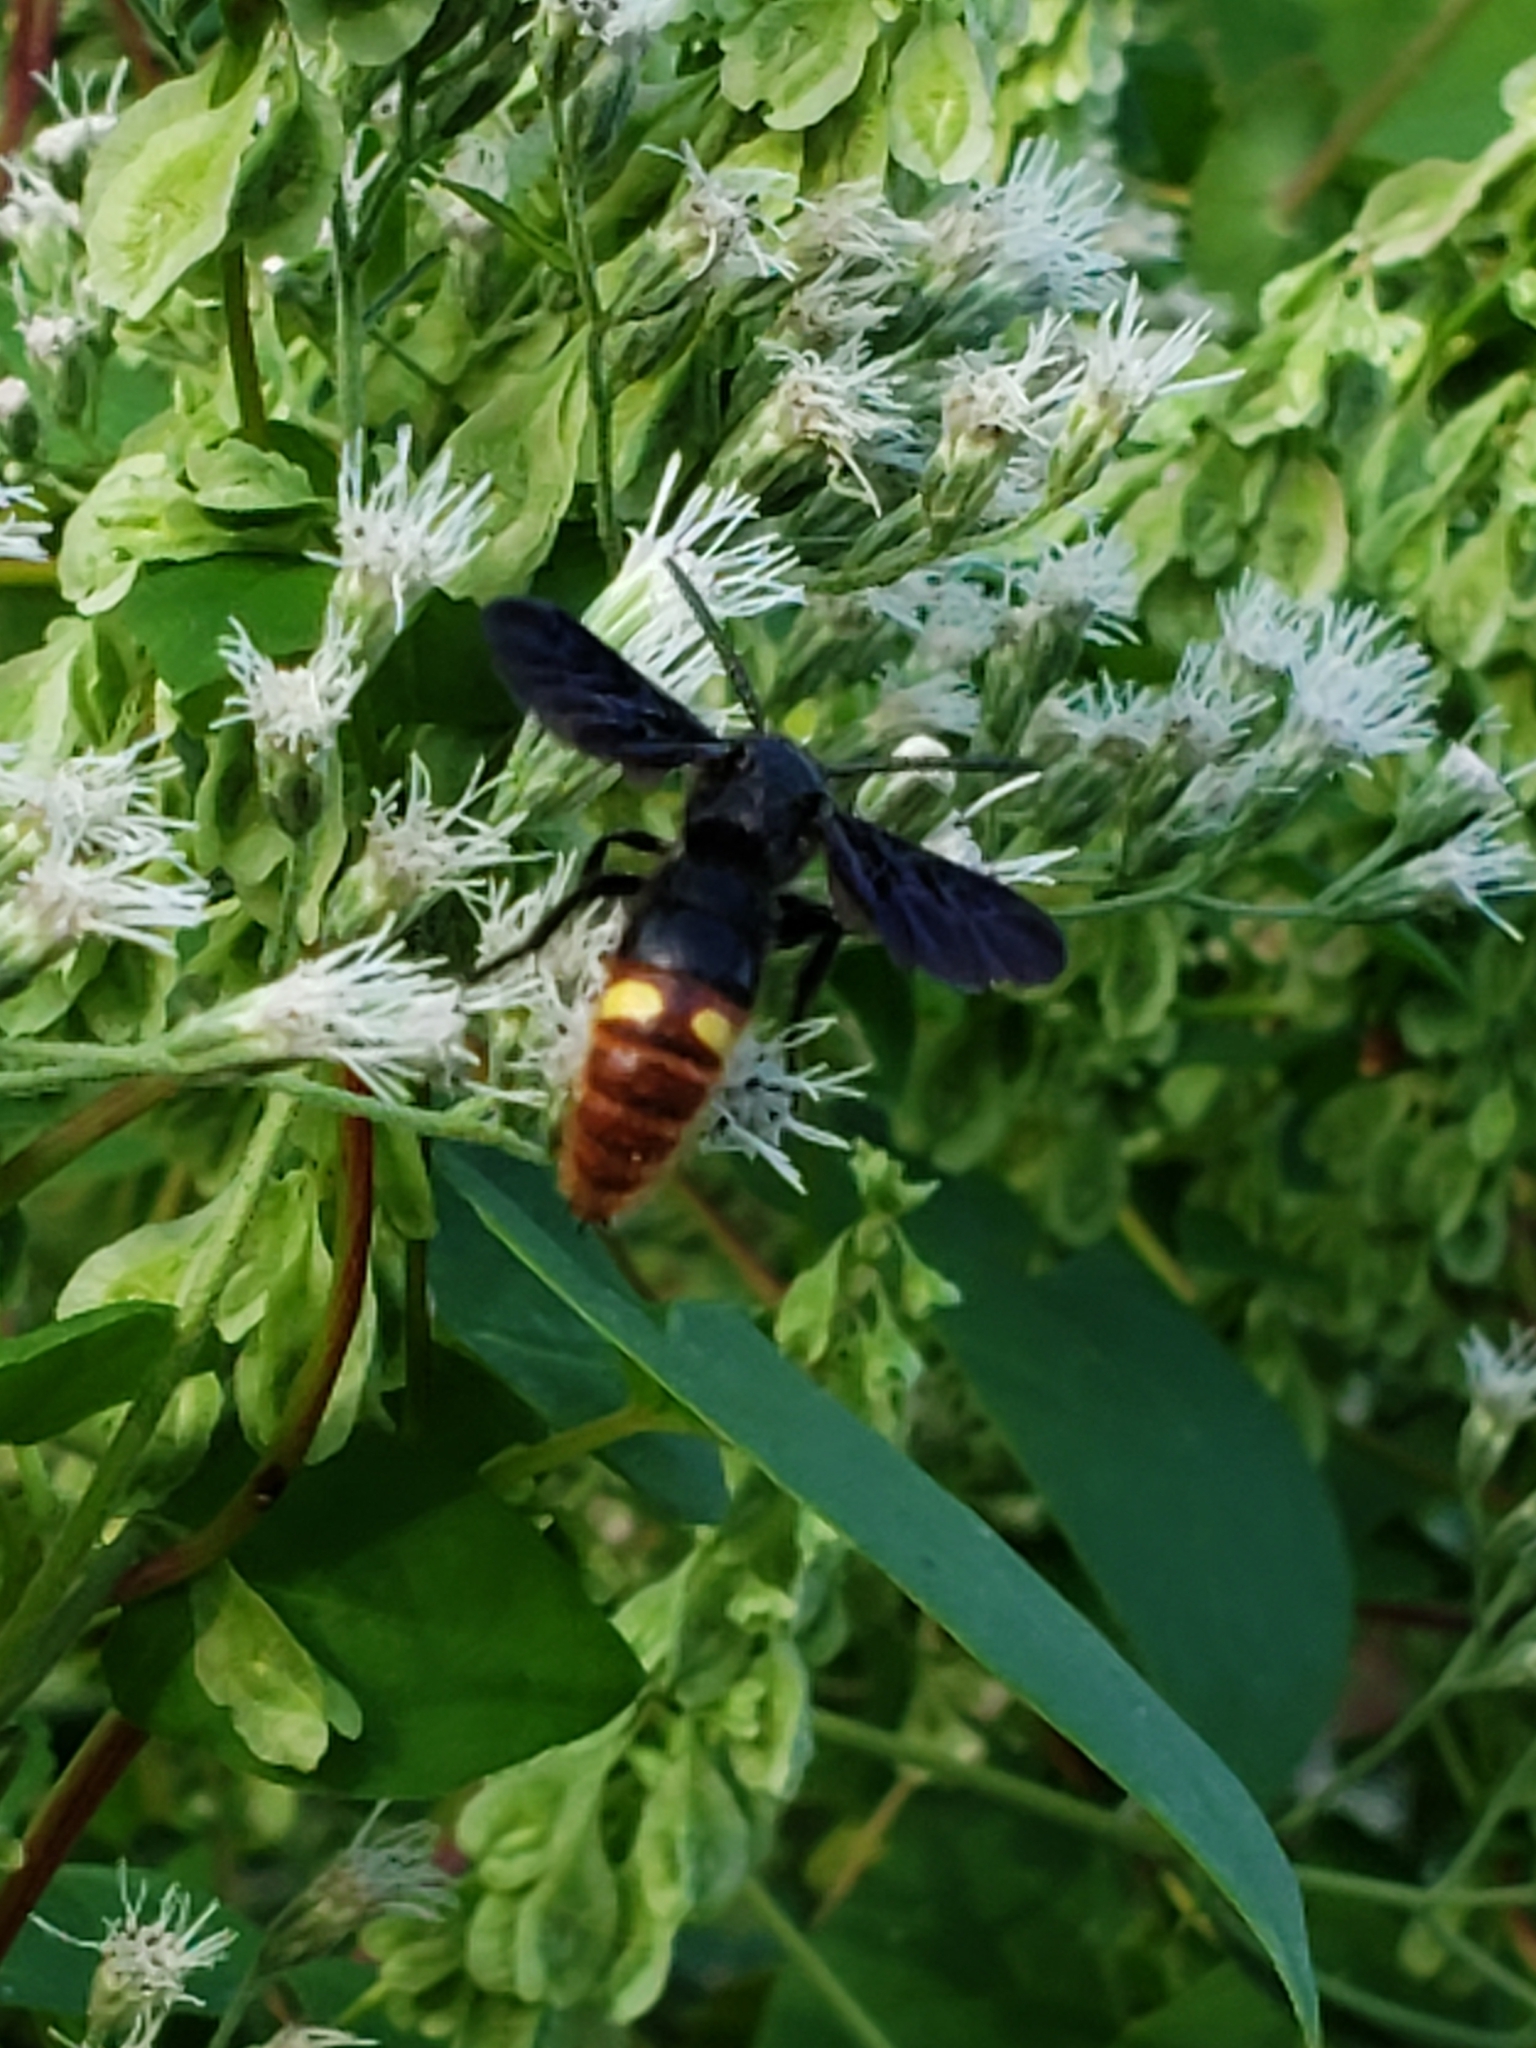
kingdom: Animalia
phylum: Arthropoda
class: Insecta
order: Hymenoptera
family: Scoliidae
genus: Scolia
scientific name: Scolia dubia
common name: Blue-winged scoliid wasp
